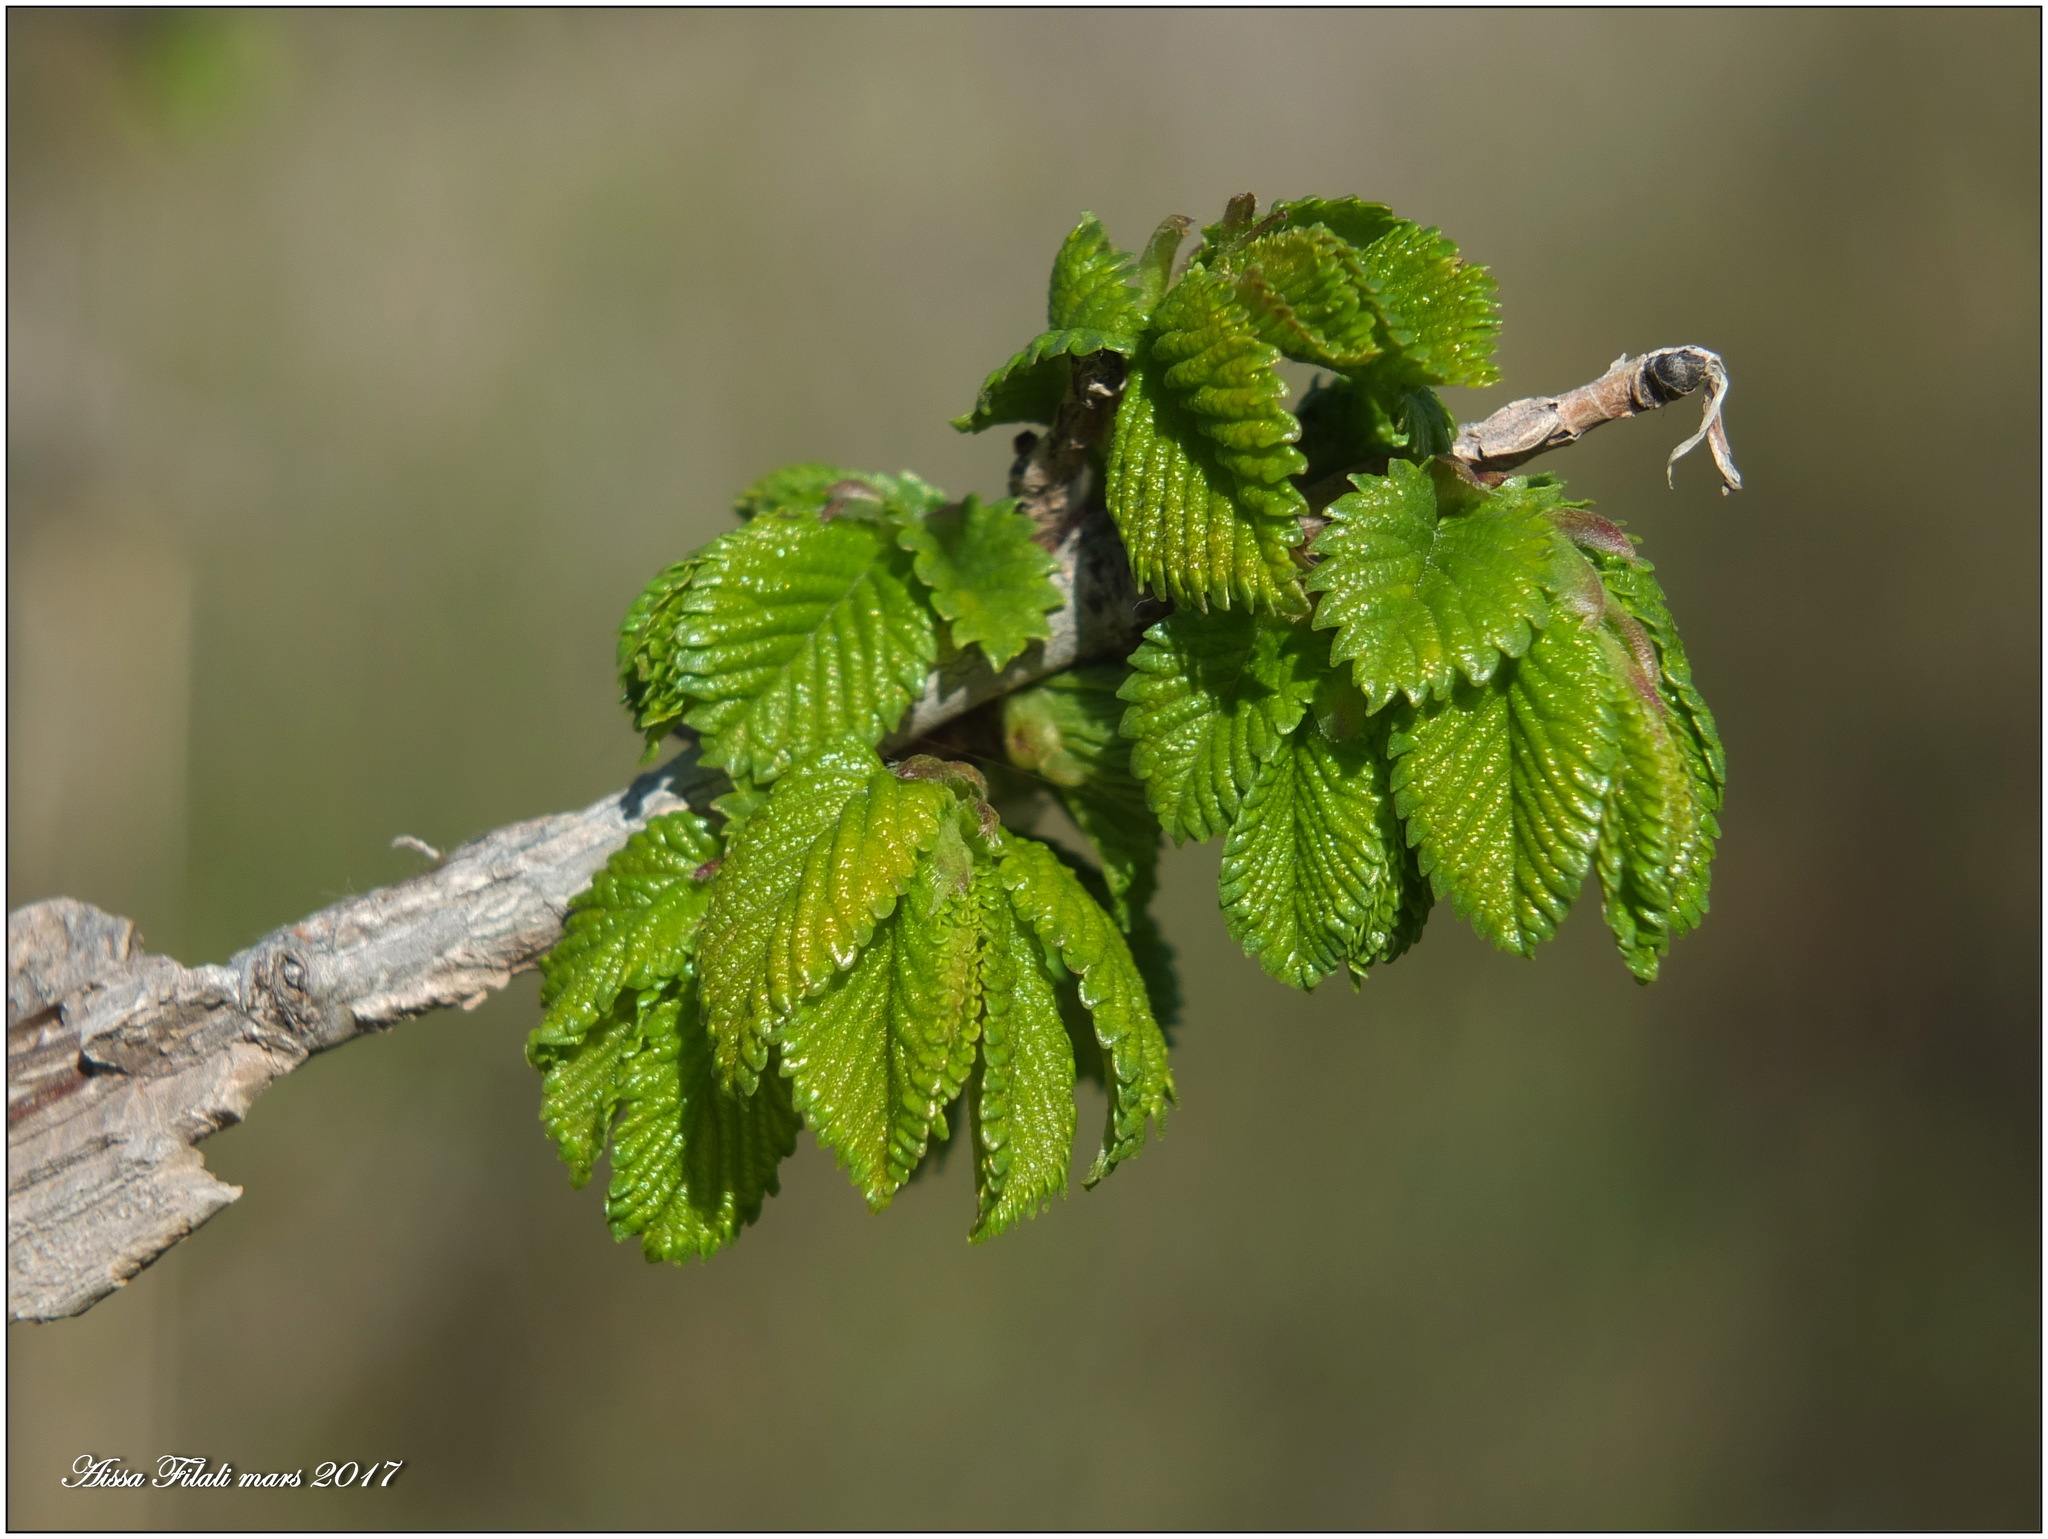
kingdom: Plantae
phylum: Tracheophyta
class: Magnoliopsida
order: Rosales
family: Ulmaceae
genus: Ulmus
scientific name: Ulmus minor
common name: Small-leaved elm
